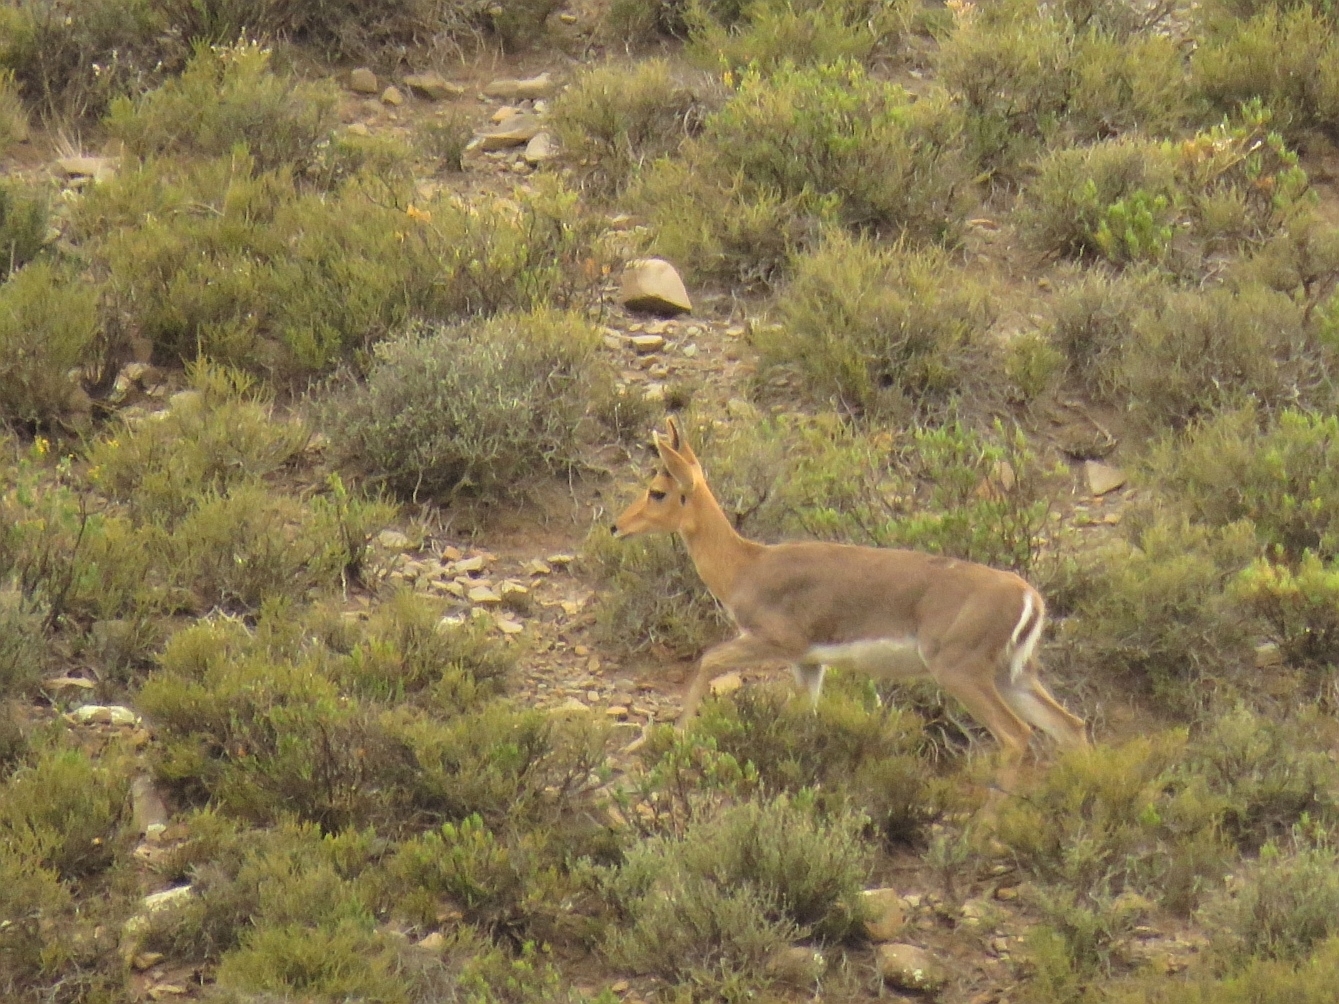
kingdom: Animalia
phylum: Chordata
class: Mammalia
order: Artiodactyla
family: Bovidae
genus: Redunca
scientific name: Redunca fulvorufula
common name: Mountain reedbuck
